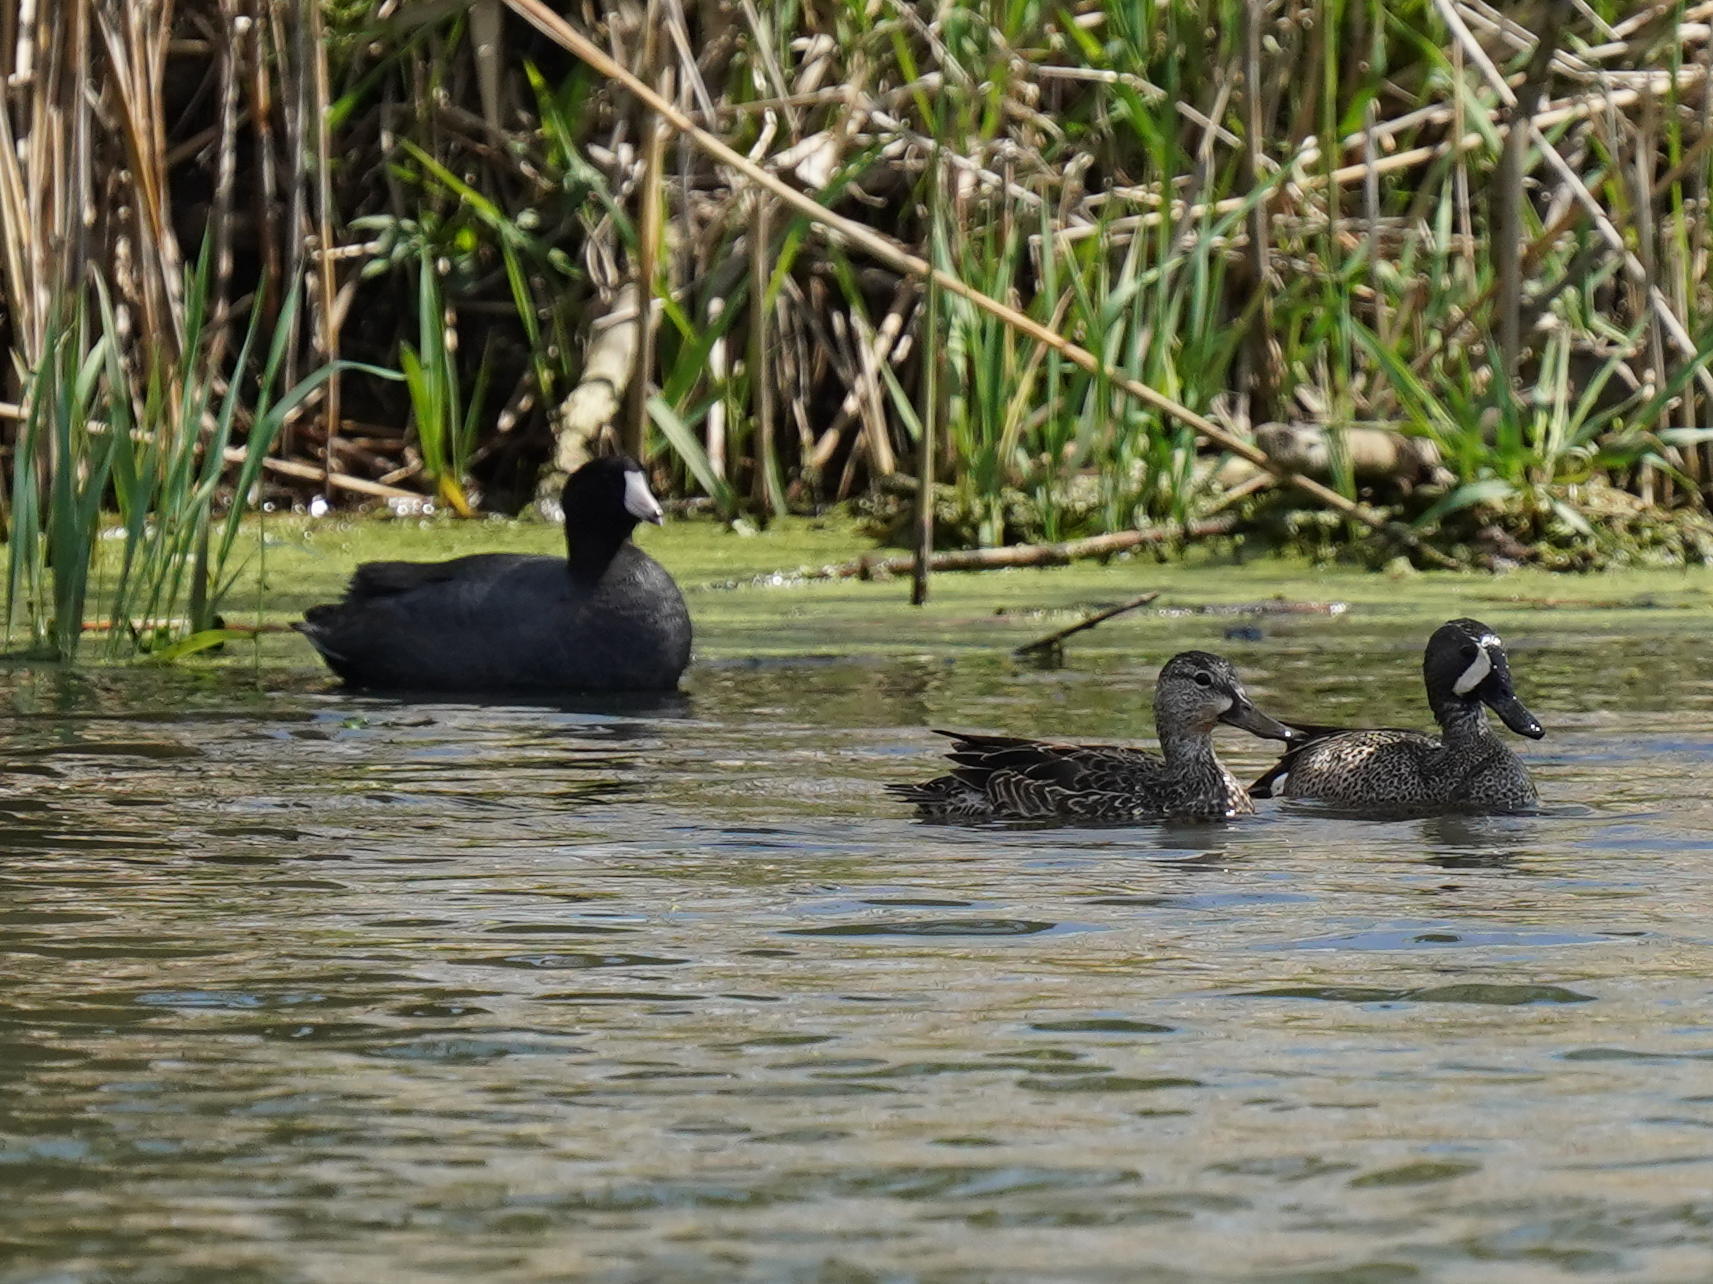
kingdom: Animalia
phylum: Chordata
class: Aves
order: Anseriformes
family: Anatidae
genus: Spatula
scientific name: Spatula discors
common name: Blue-winged teal
